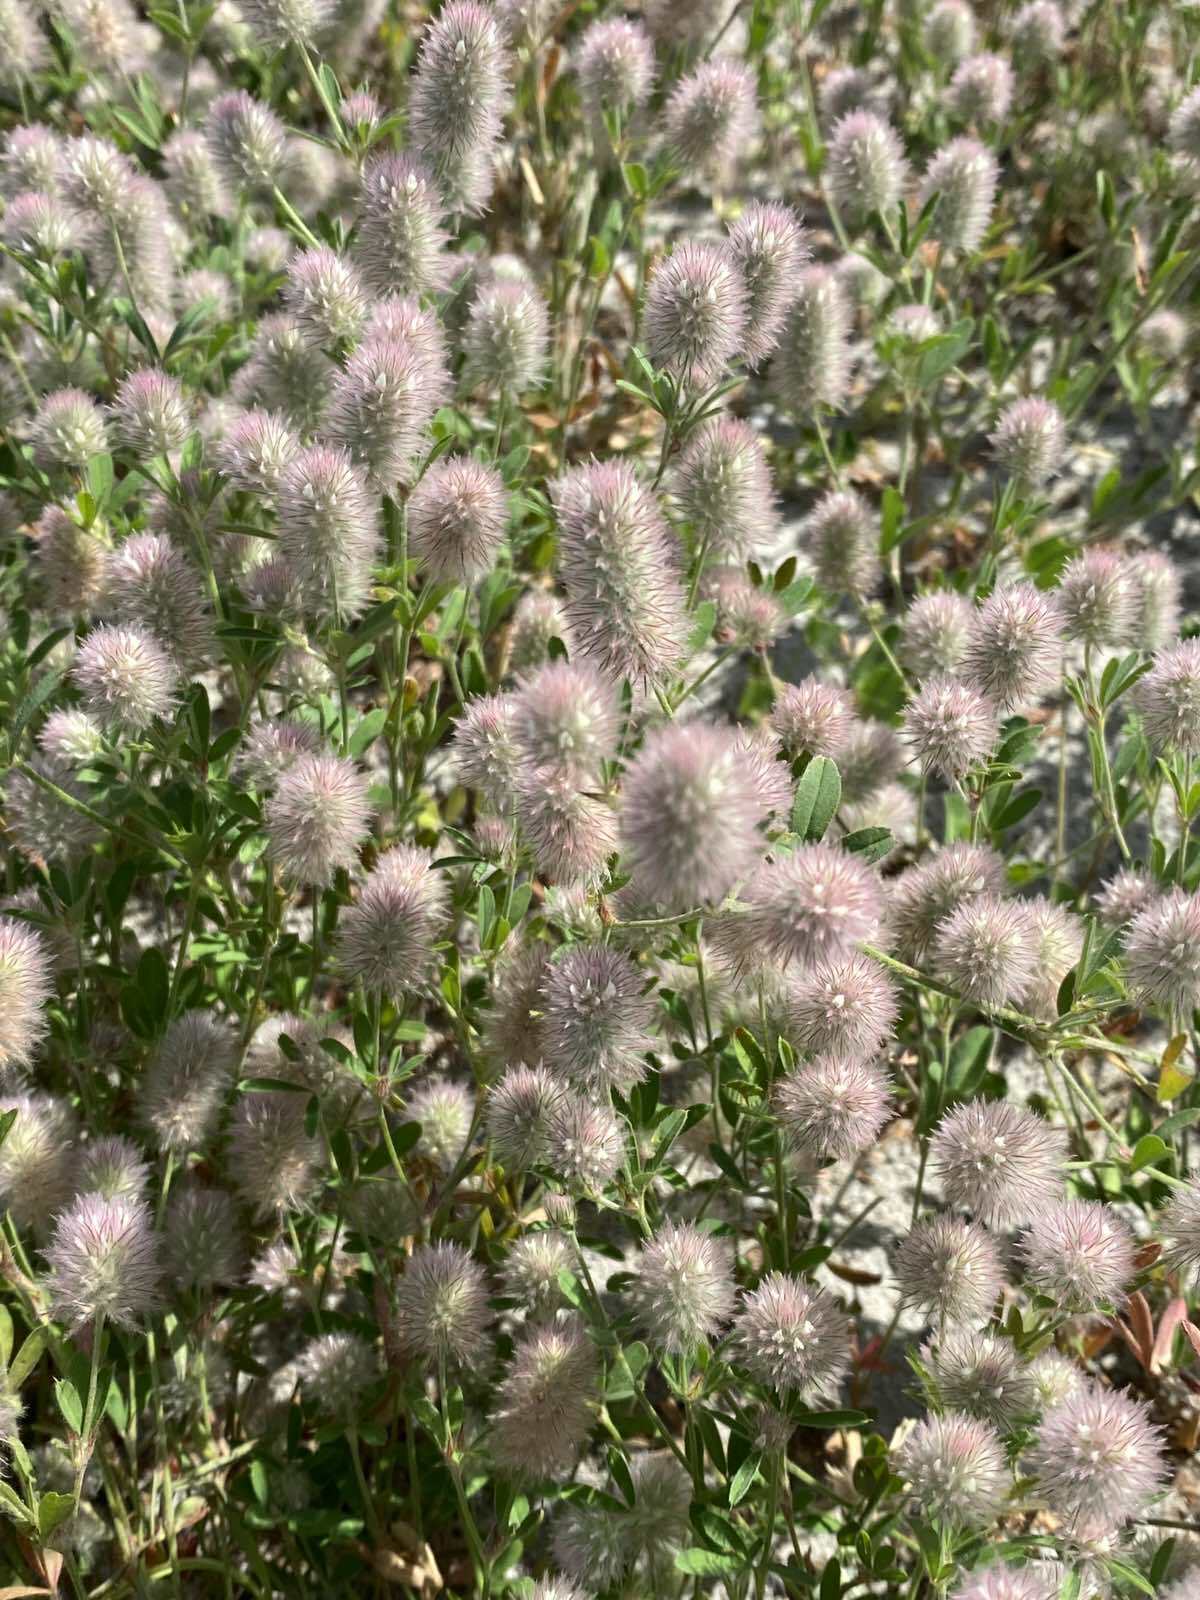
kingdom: Plantae
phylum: Tracheophyta
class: Magnoliopsida
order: Fabales
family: Fabaceae
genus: Trifolium
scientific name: Trifolium arvense
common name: Hare's-foot clover
